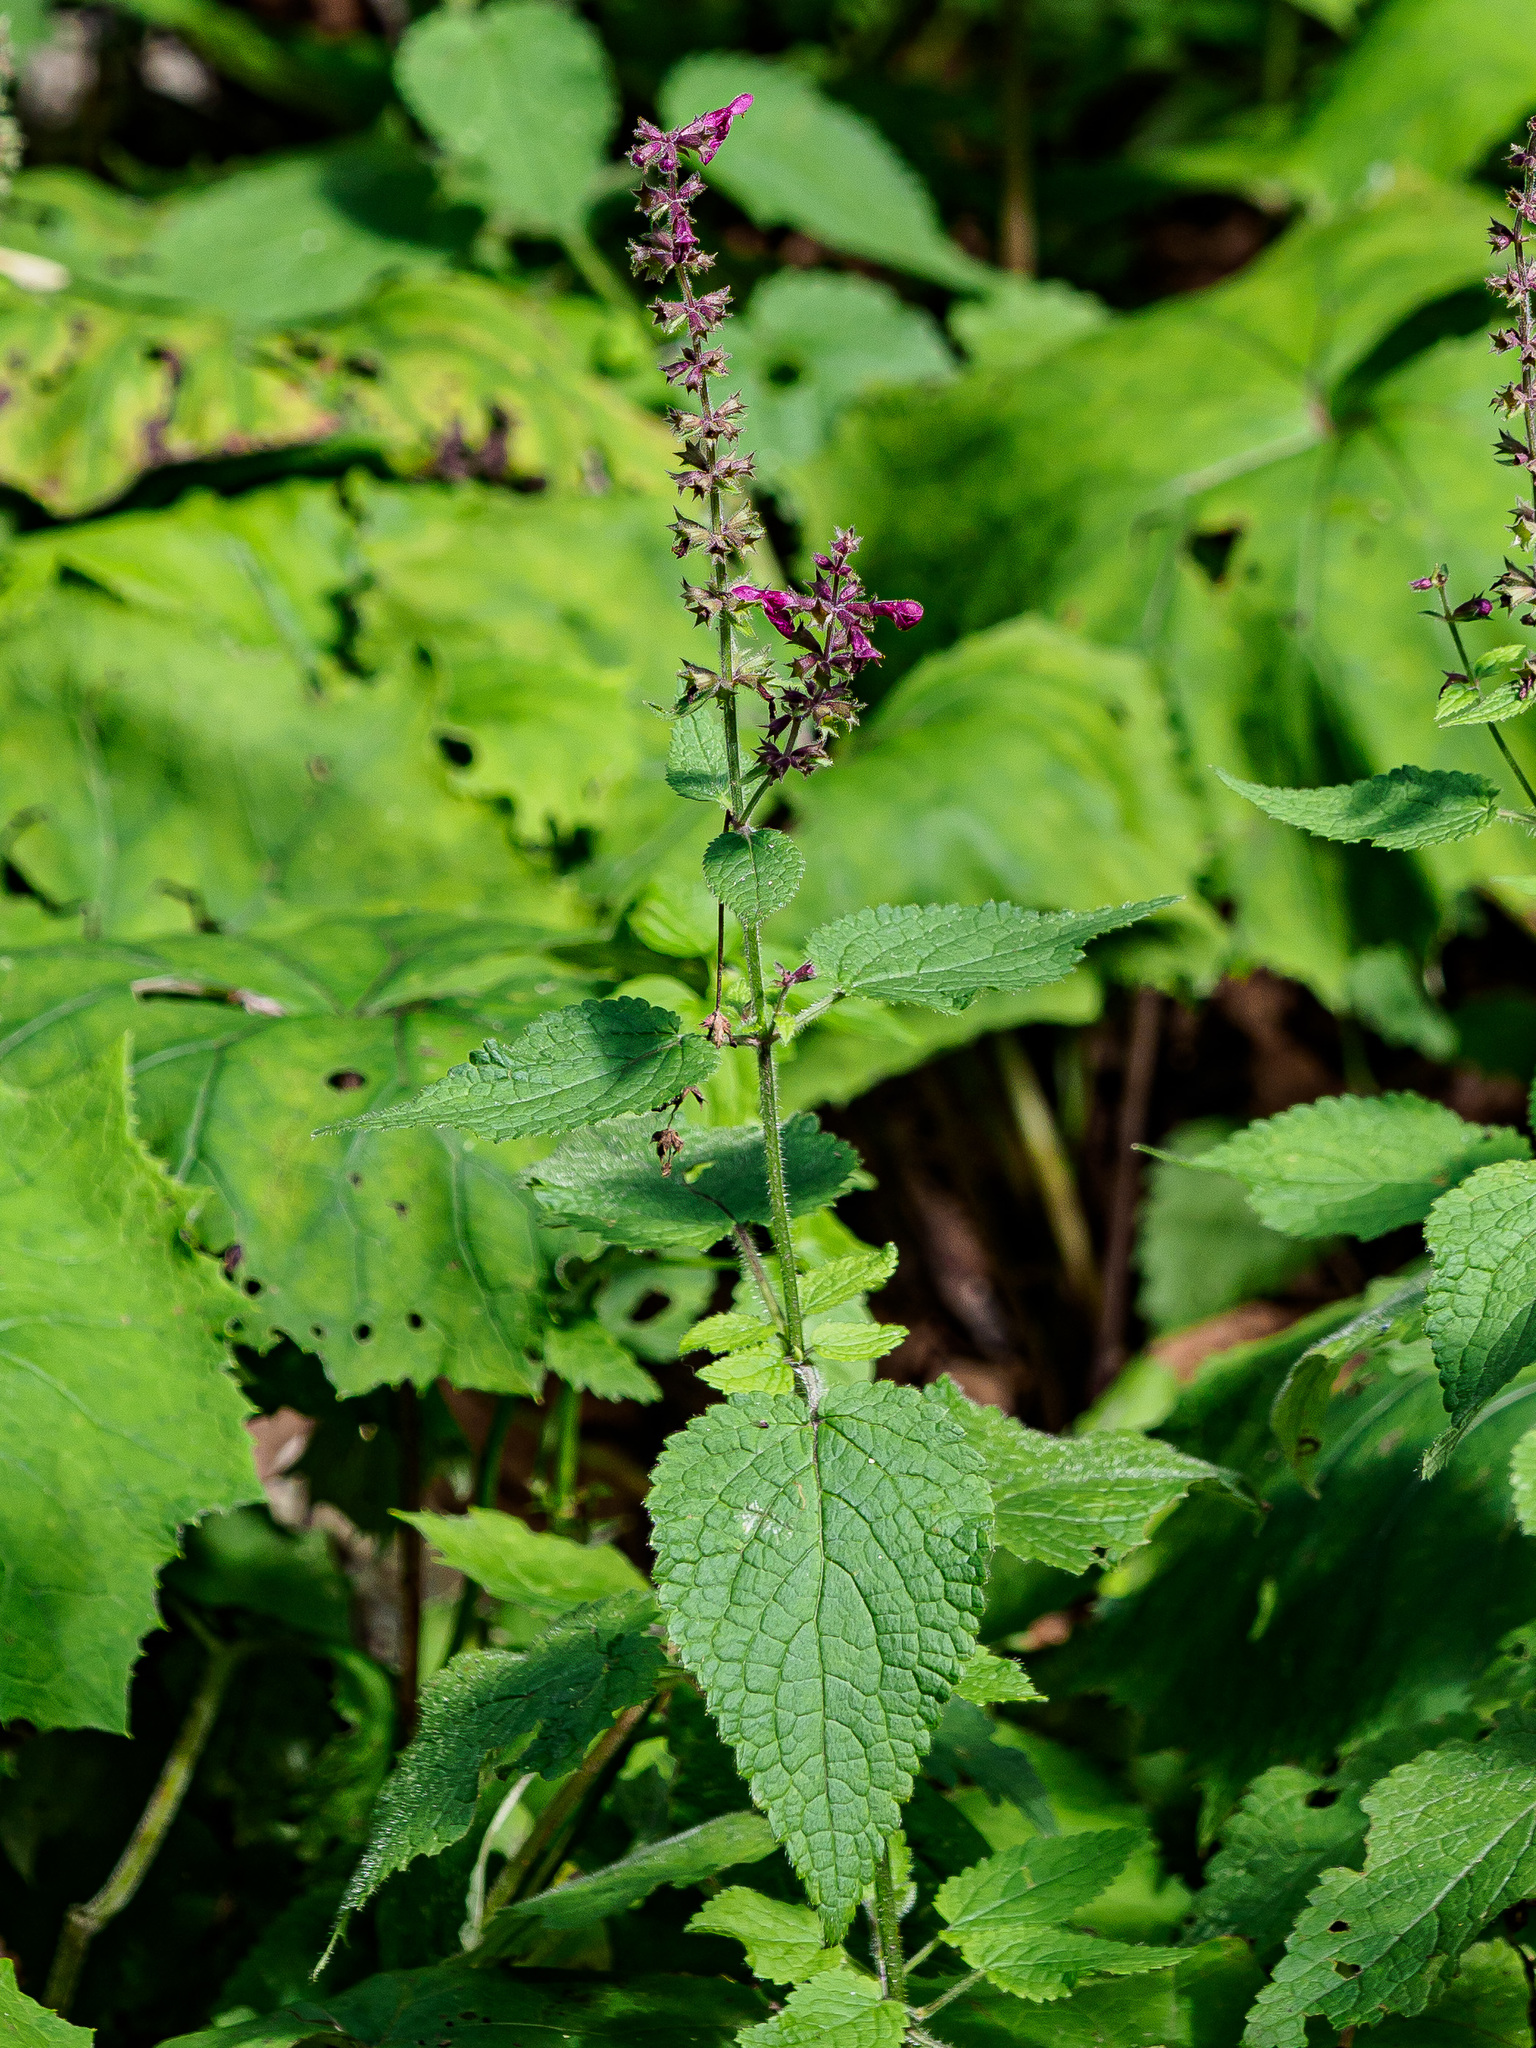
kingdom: Plantae
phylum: Tracheophyta
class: Magnoliopsida
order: Lamiales
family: Lamiaceae
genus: Stachys
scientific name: Stachys sylvatica
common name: Hedge woundwort
